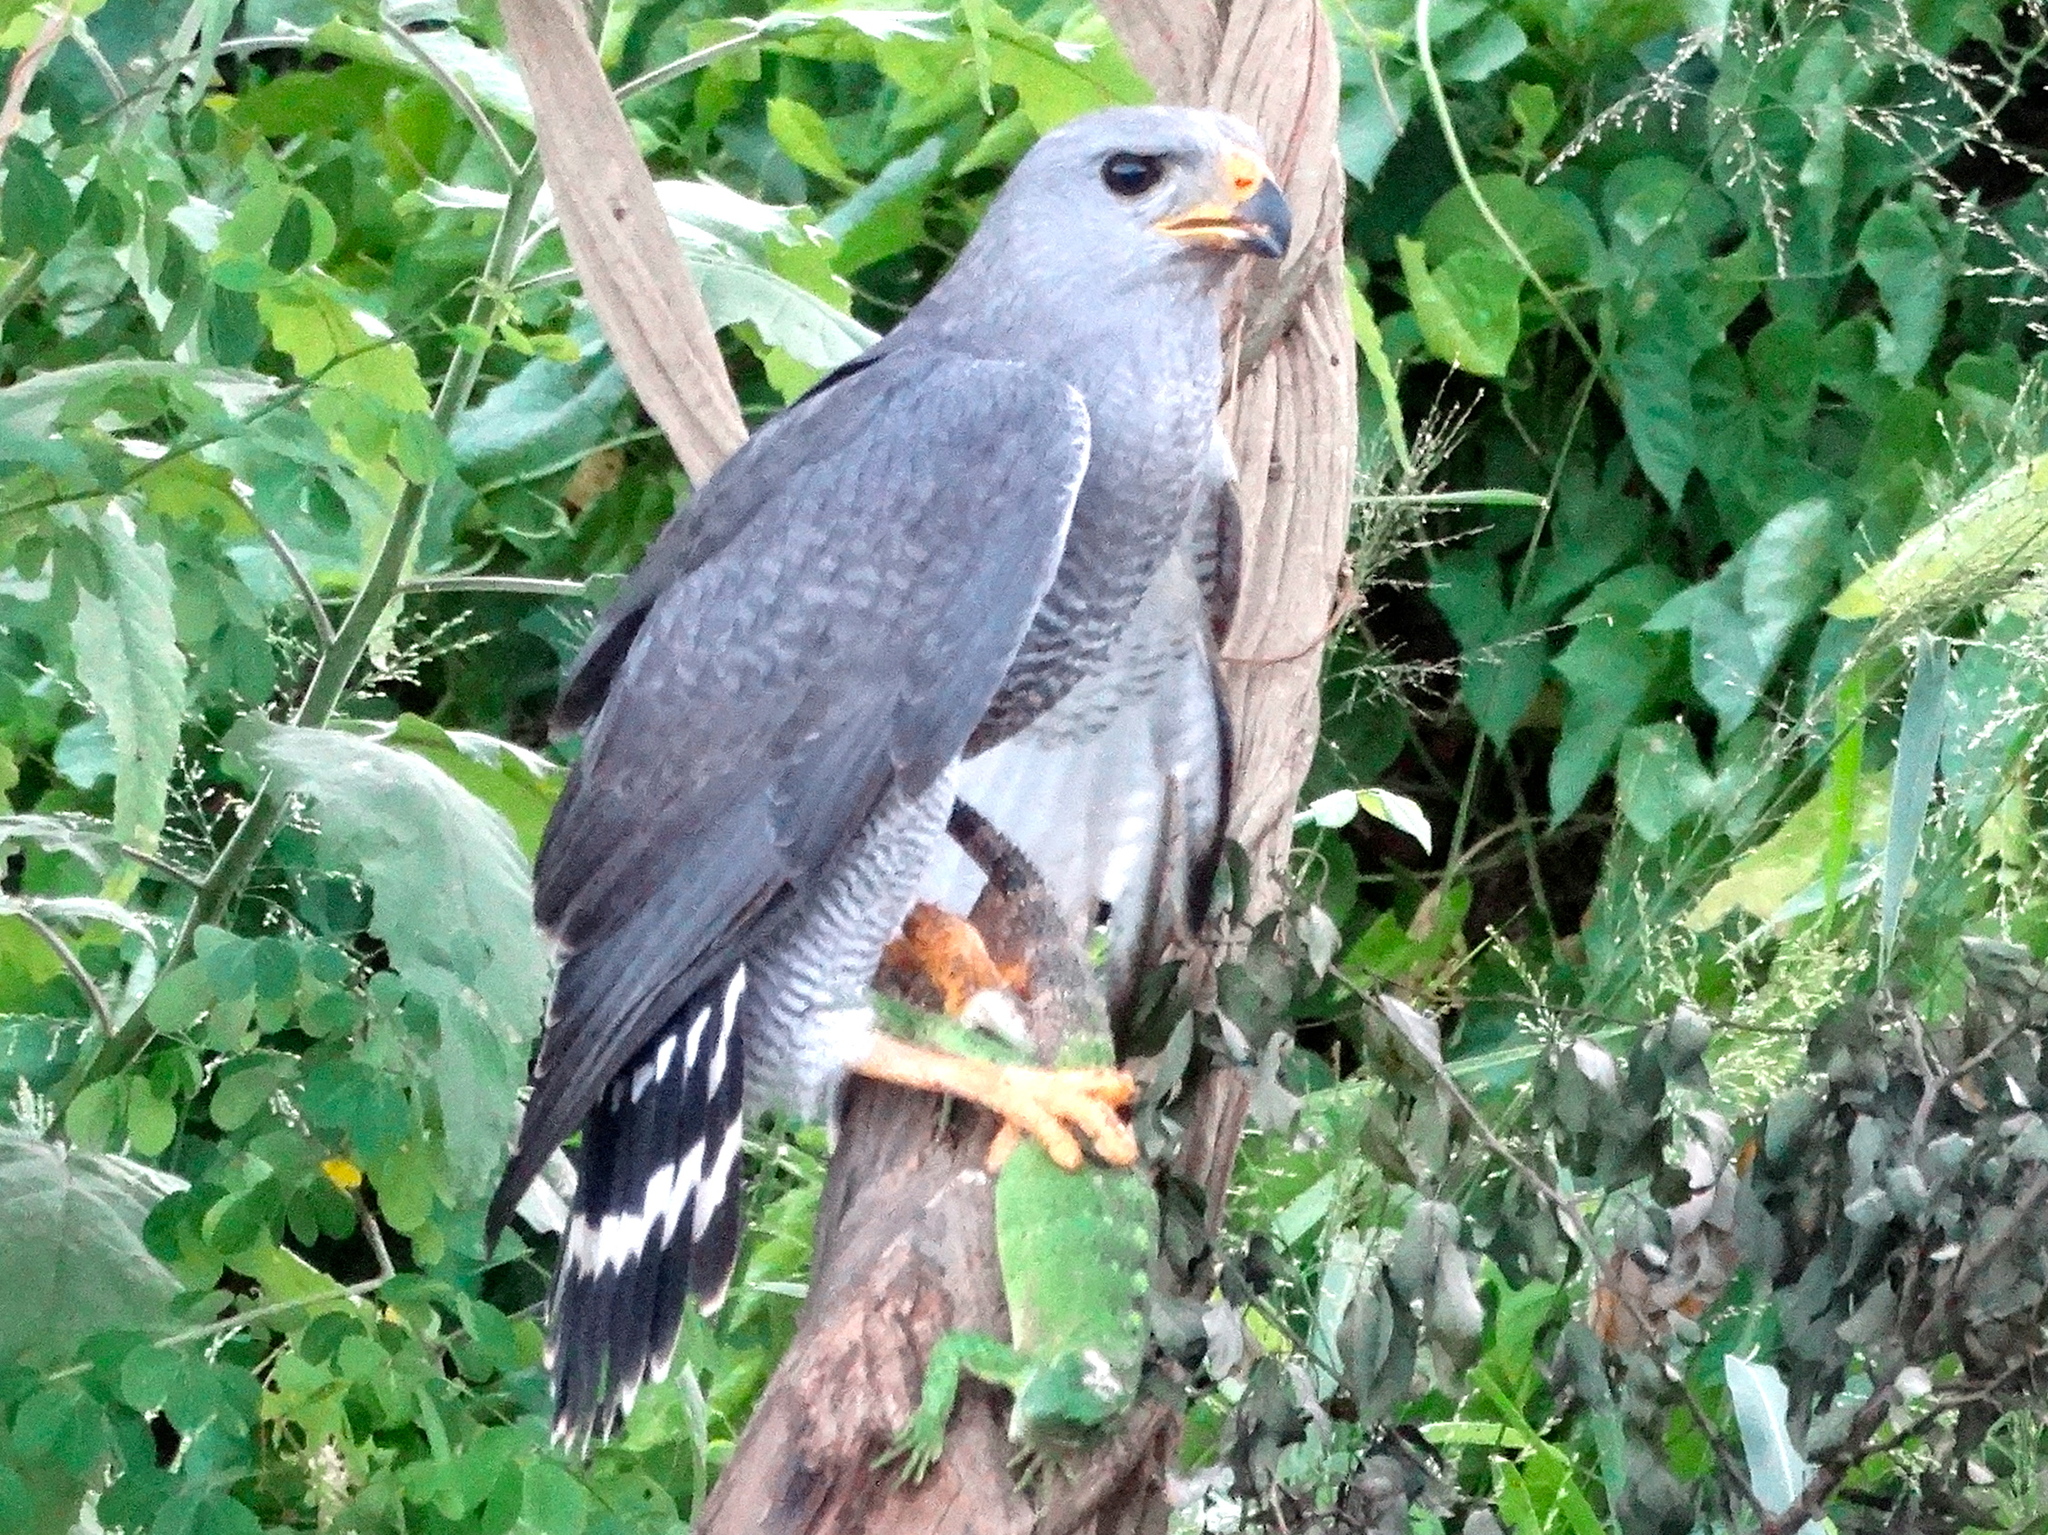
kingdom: Animalia
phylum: Chordata
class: Squamata
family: Iguanidae
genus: Ctenosaura
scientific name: Ctenosaura pectinata
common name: Guerreran spiny-tailed iguana
